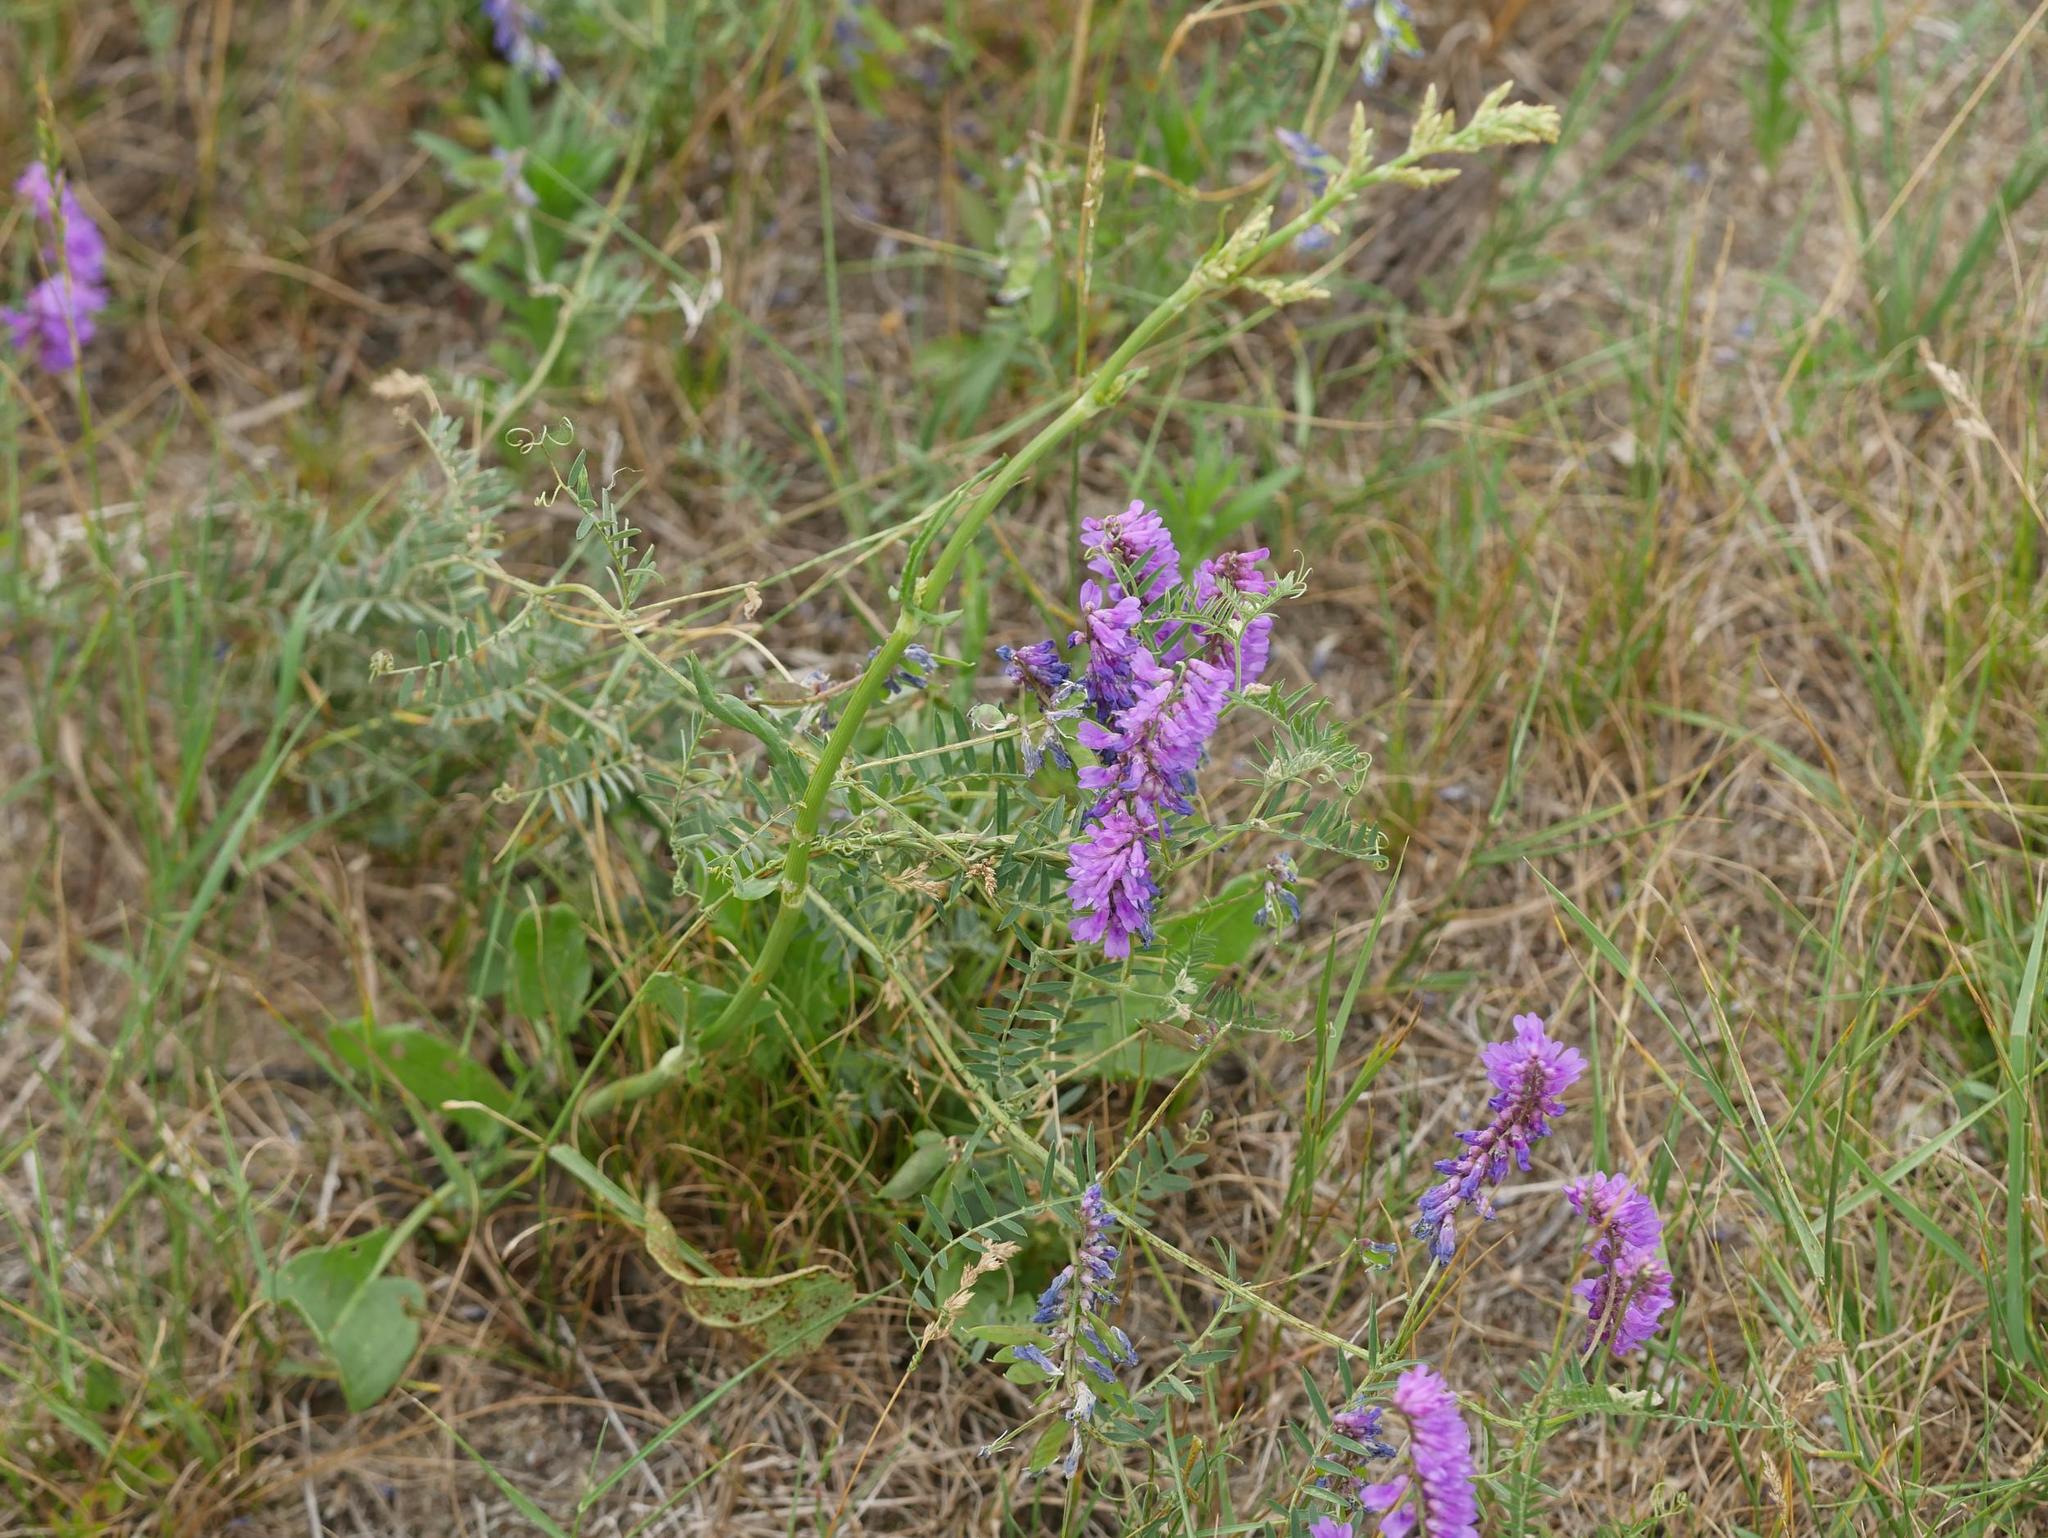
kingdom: Plantae
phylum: Tracheophyta
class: Magnoliopsida
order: Fabales
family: Fabaceae
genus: Vicia
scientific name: Vicia cracca
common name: Bird vetch
